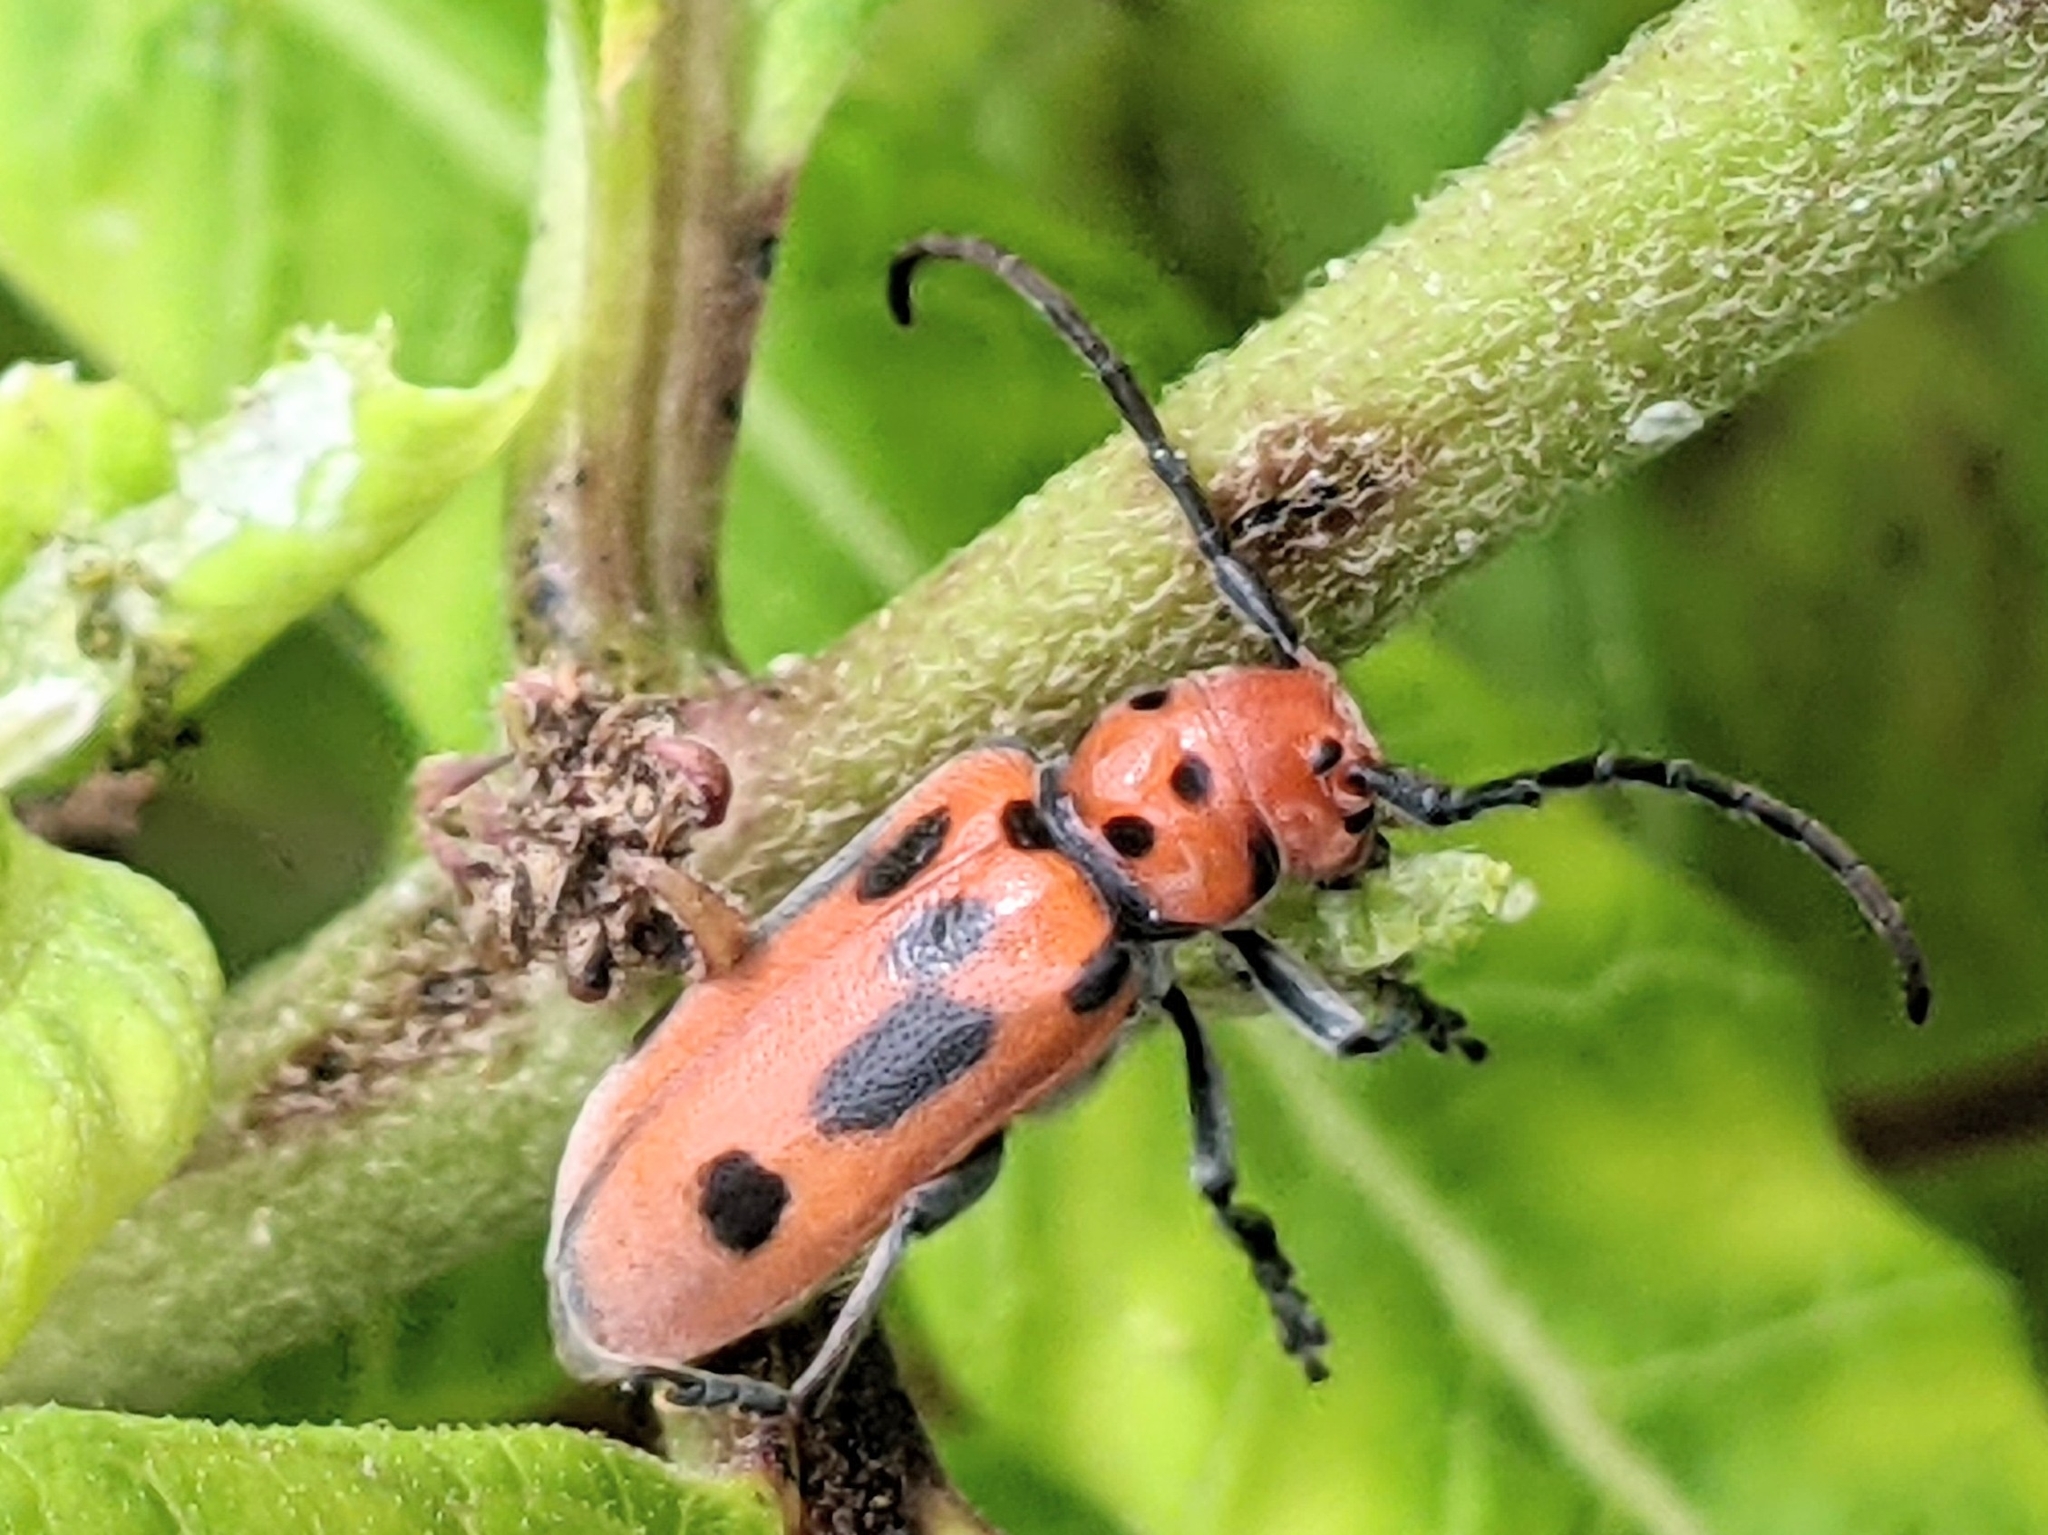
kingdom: Animalia
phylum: Arthropoda
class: Insecta
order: Coleoptera
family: Cerambycidae
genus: Tetraopes
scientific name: Tetraopes tetrophthalmus
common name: Red milkweed beetle
